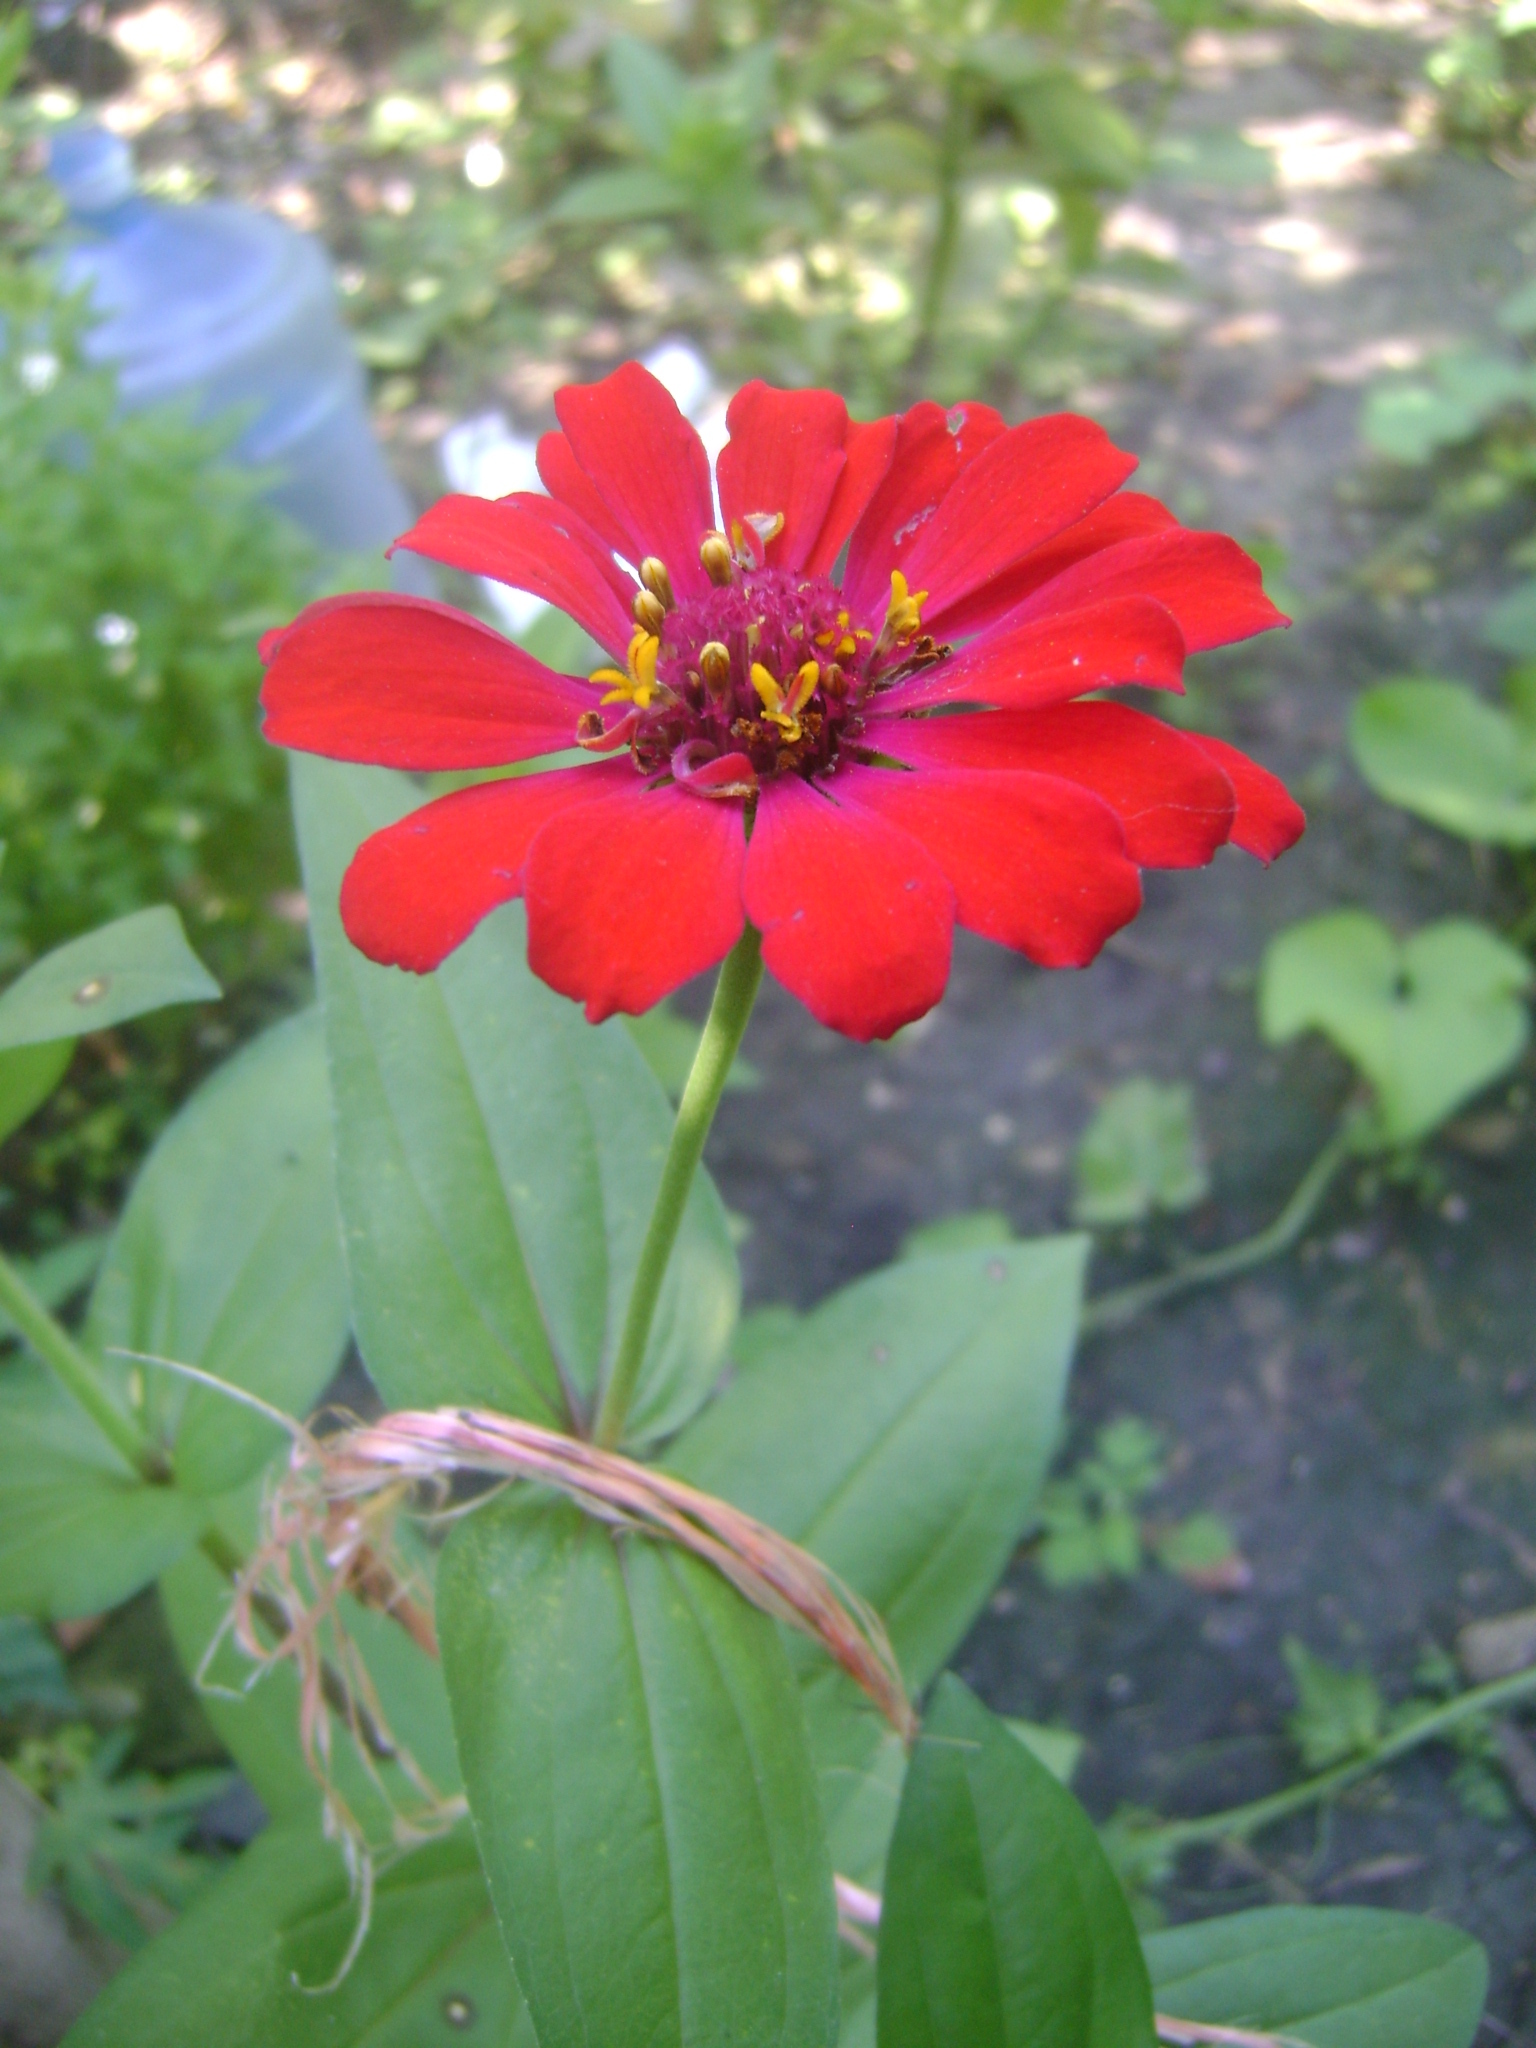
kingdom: Plantae
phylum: Tracheophyta
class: Magnoliopsida
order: Asterales
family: Asteraceae
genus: Zinnia
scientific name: Zinnia elegans
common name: Youth-and-age
